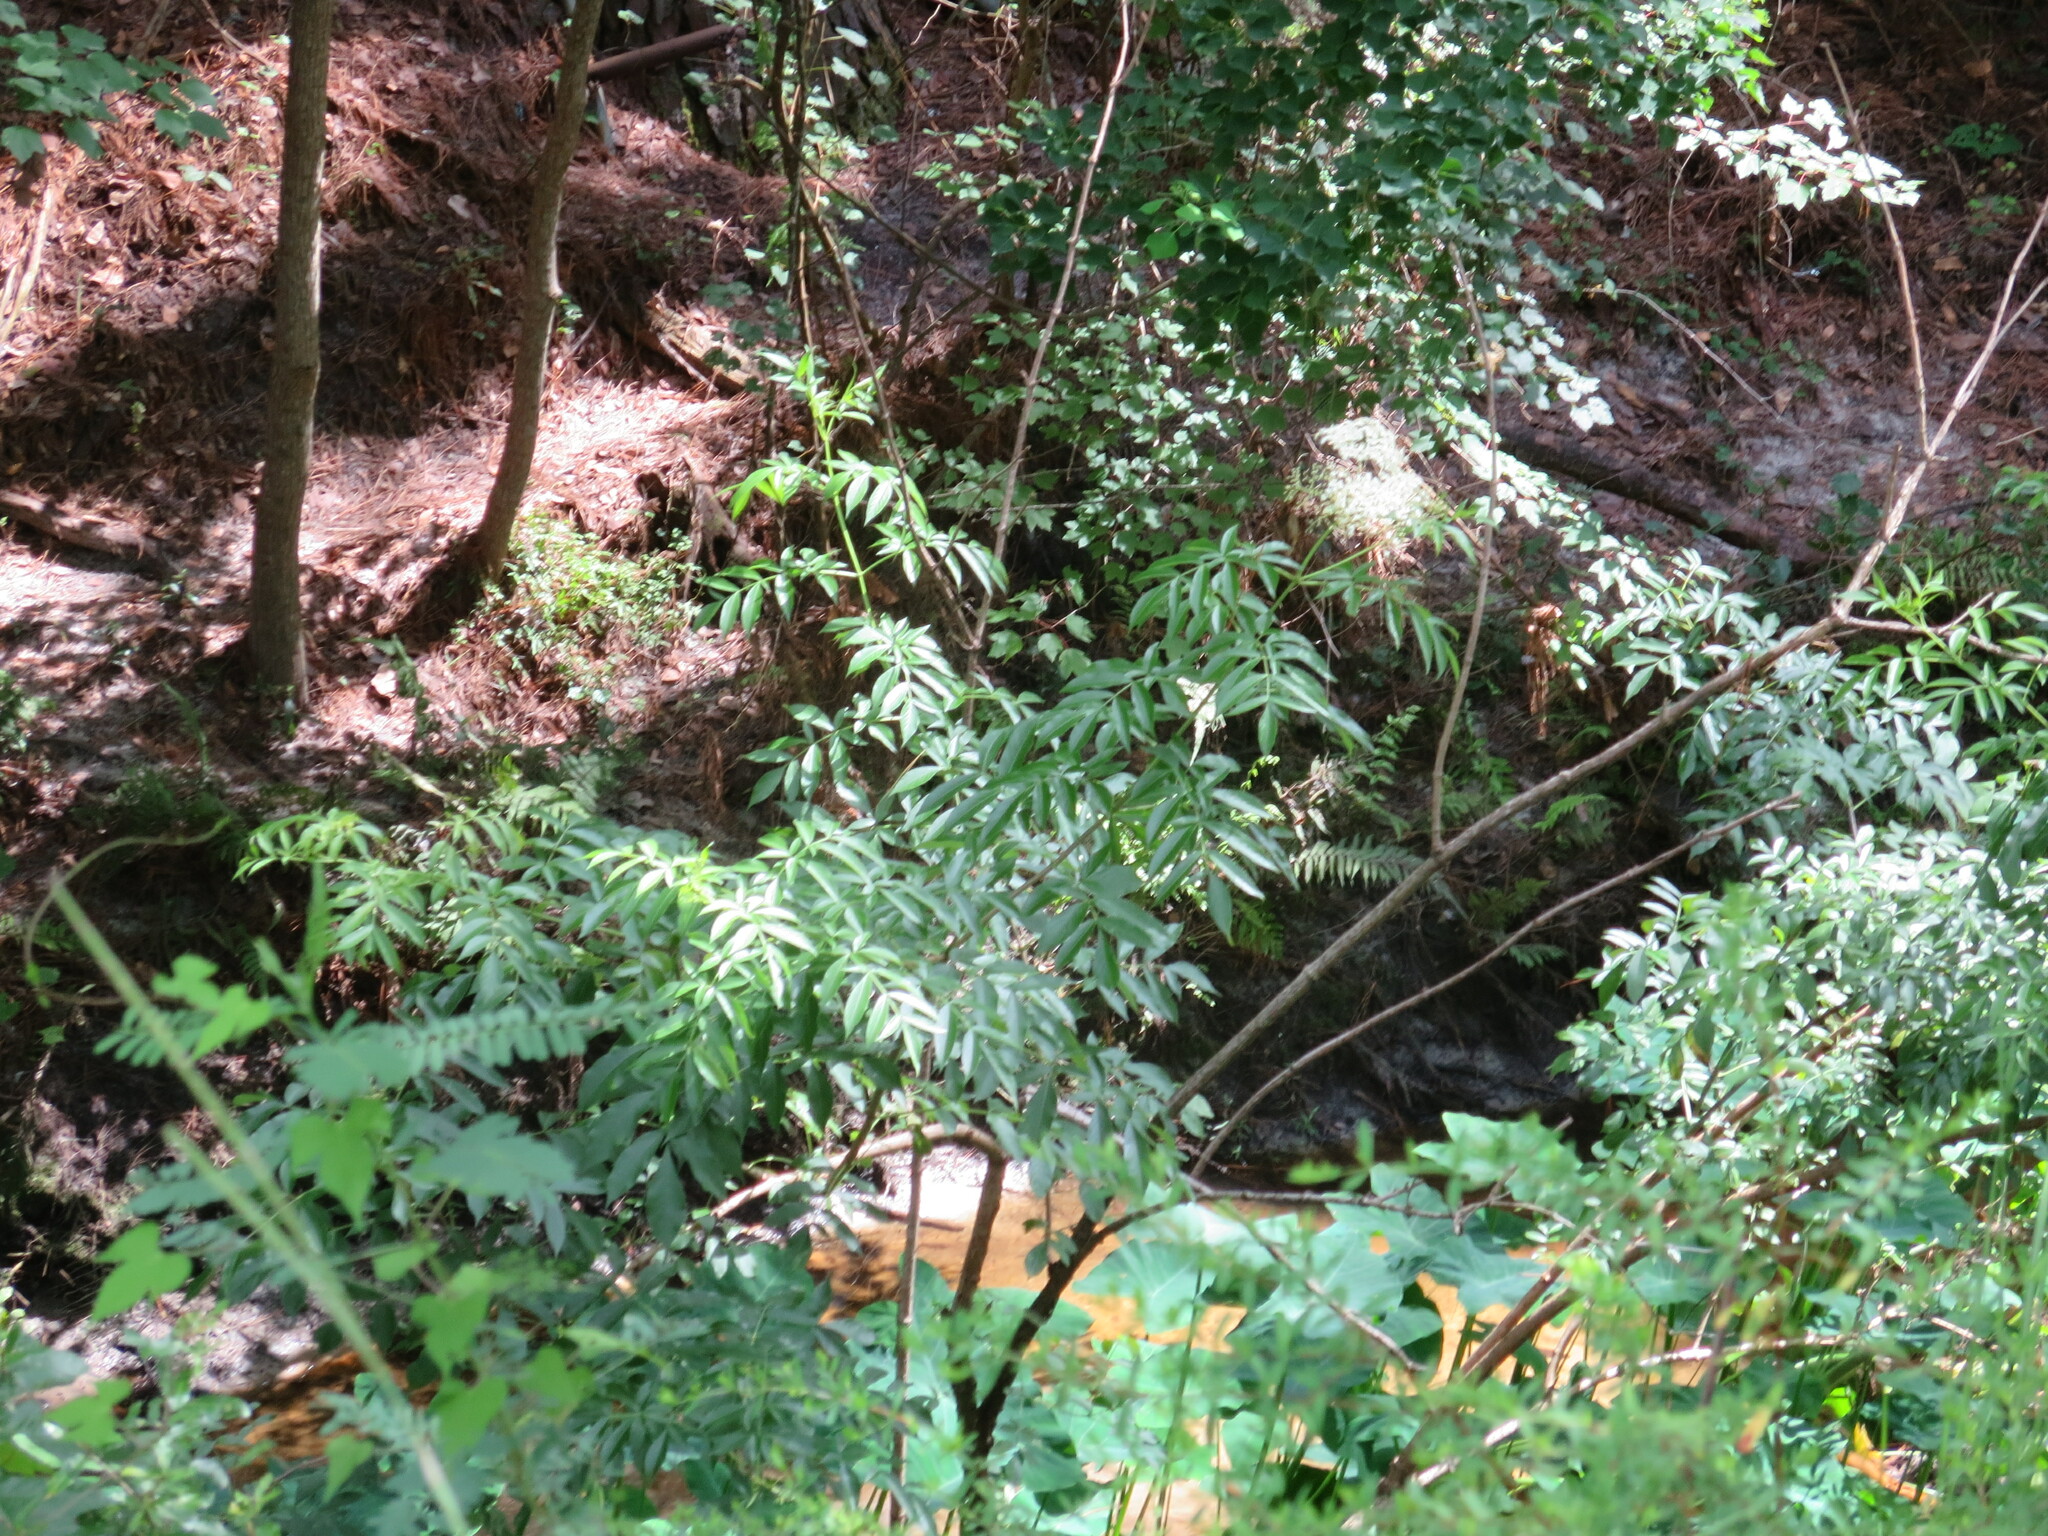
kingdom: Plantae
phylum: Tracheophyta
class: Magnoliopsida
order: Dipsacales
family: Viburnaceae
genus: Sambucus
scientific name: Sambucus canadensis
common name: American elder
